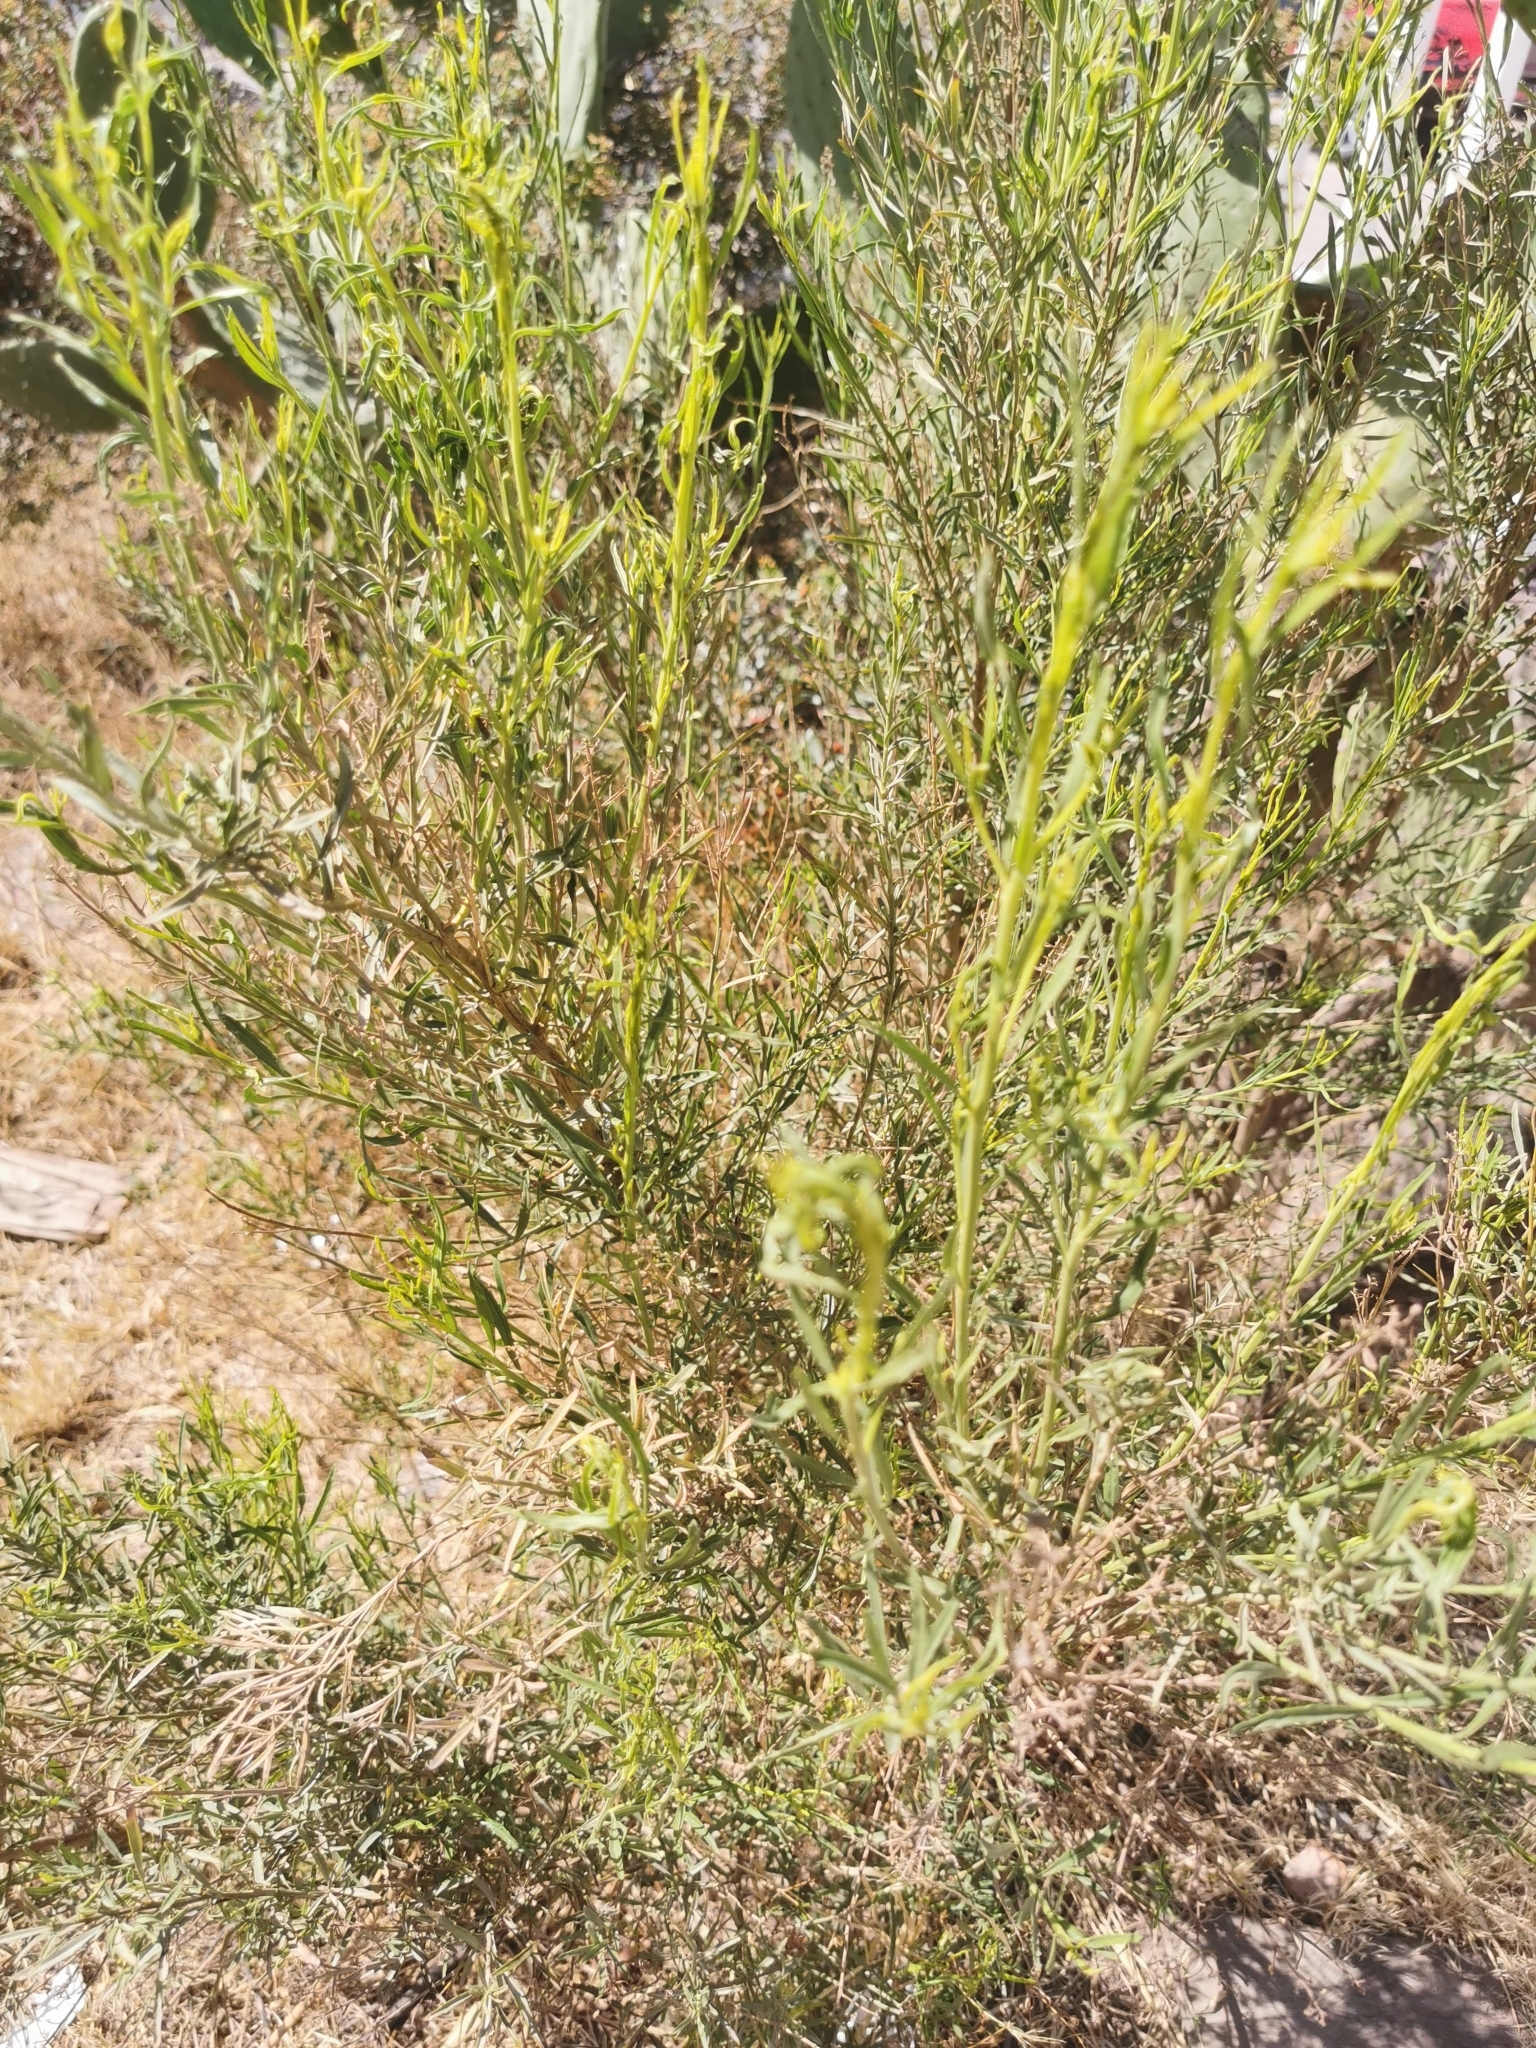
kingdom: Plantae
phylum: Tracheophyta
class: Magnoliopsida
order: Asterales
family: Asteraceae
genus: Baccharis
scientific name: Baccharis neglecta
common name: Roosevelt-weed
